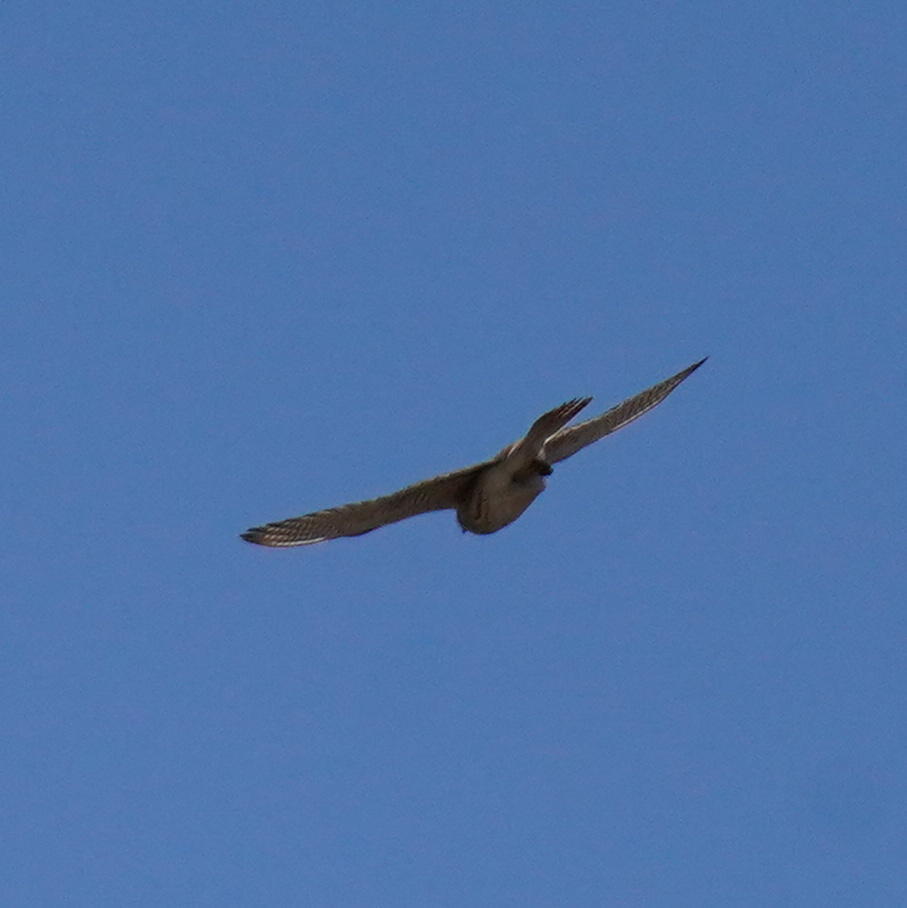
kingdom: Animalia
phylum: Chordata
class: Aves
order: Falconiformes
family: Falconidae
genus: Falco
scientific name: Falco sparverius
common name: American kestrel
